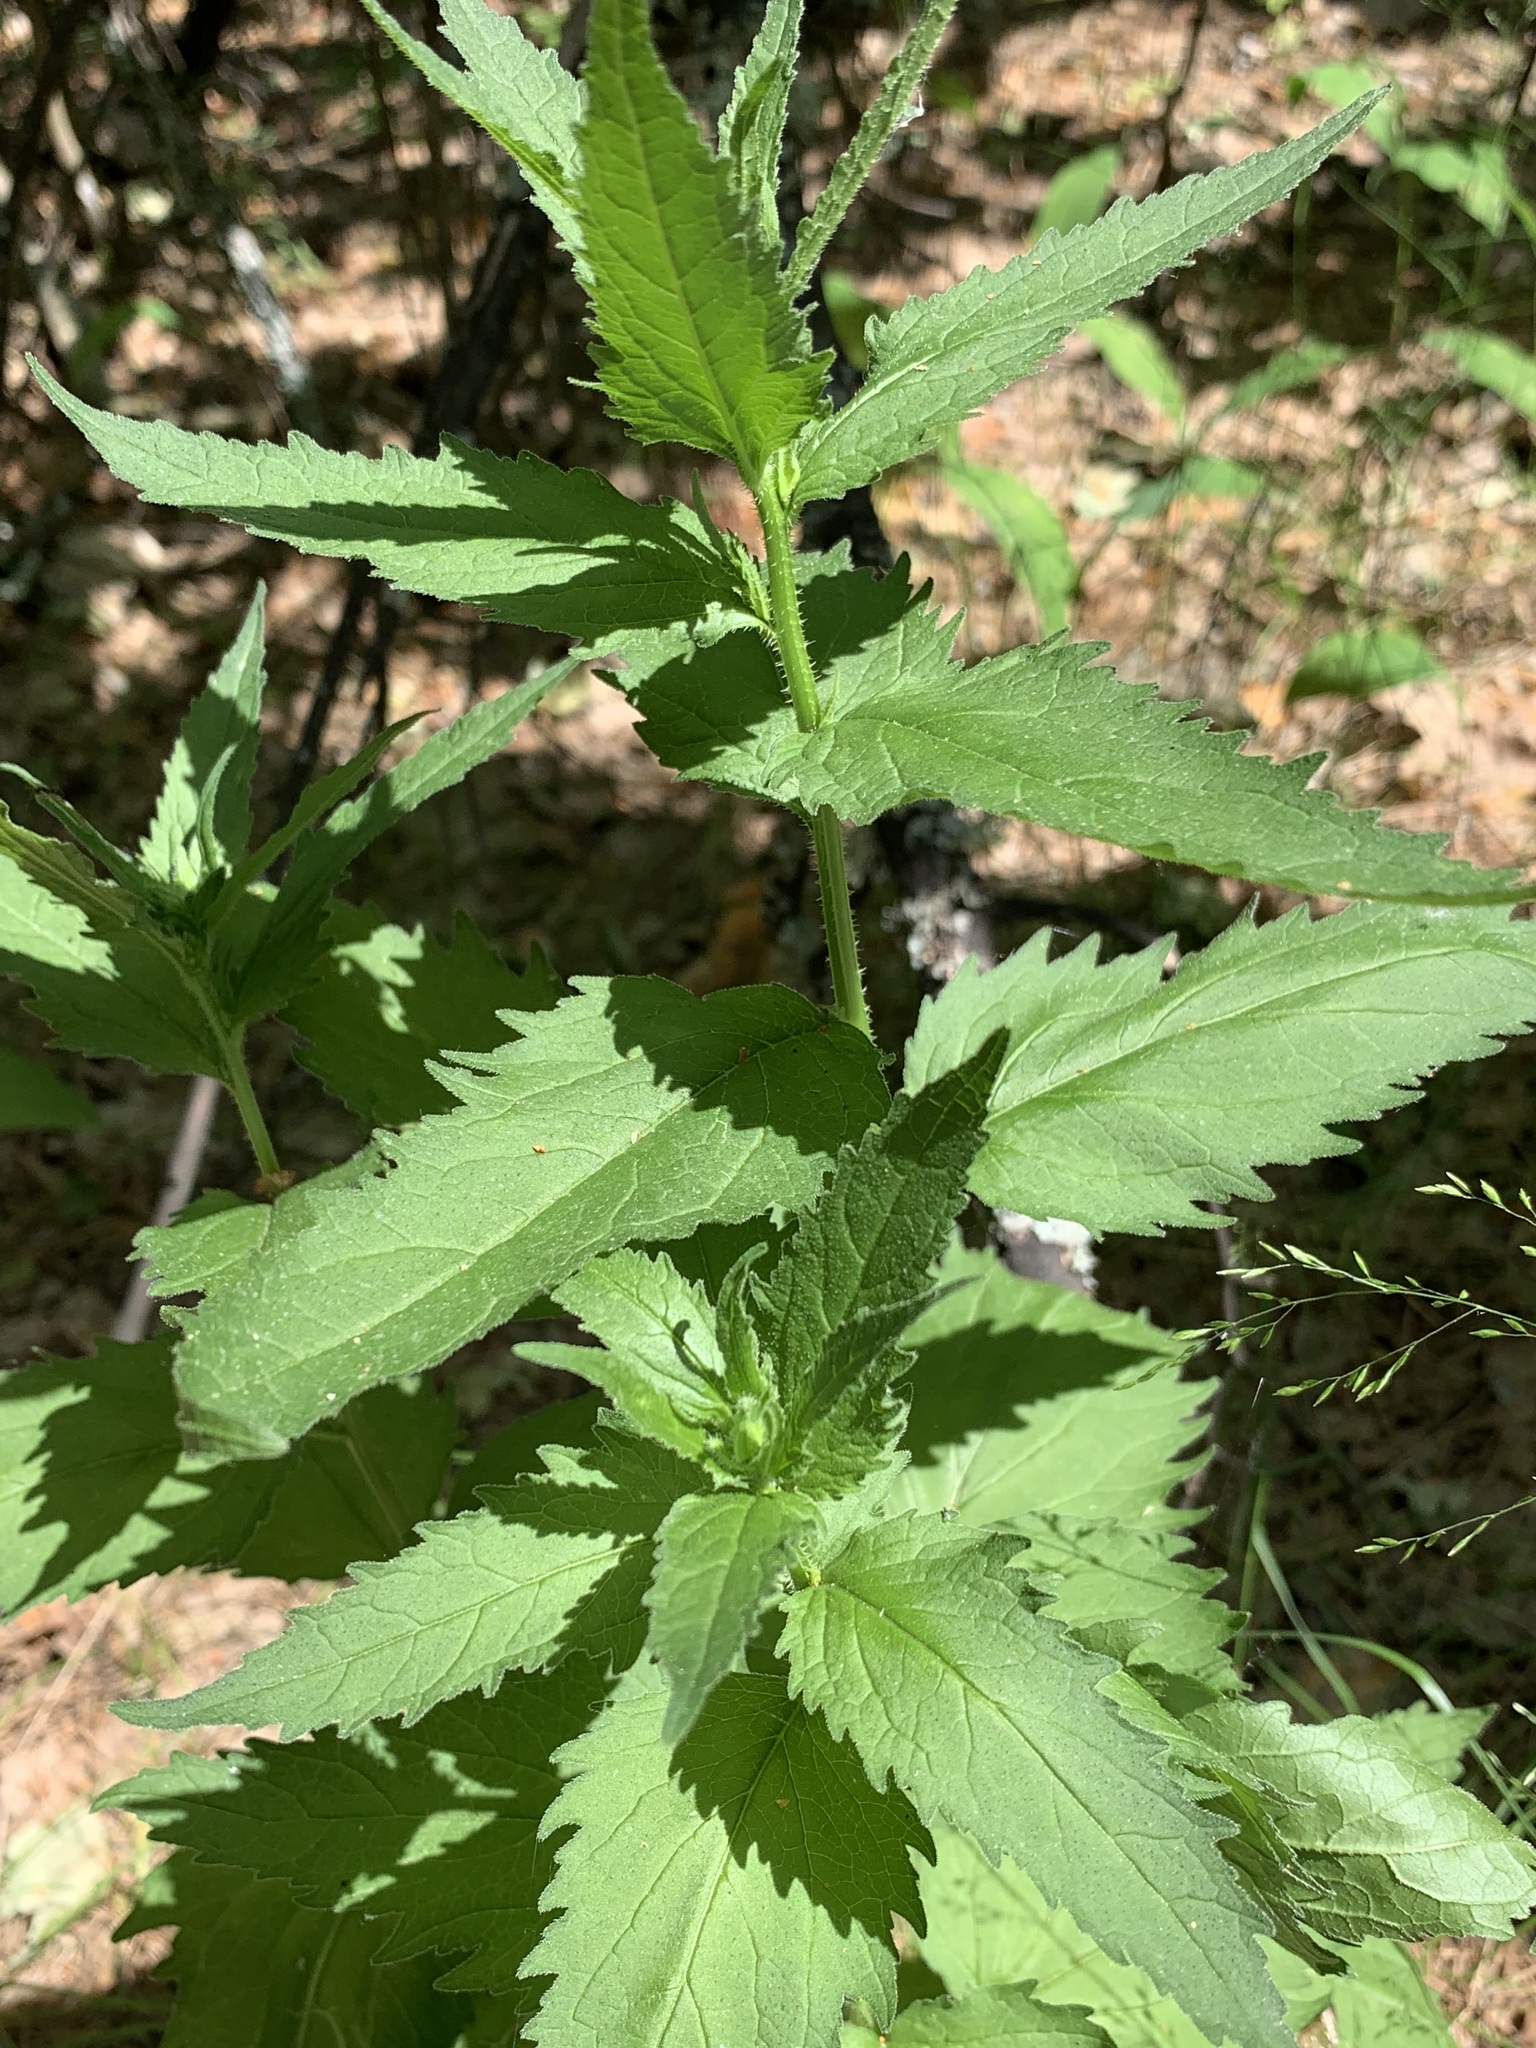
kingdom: Plantae
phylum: Tracheophyta
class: Magnoliopsida
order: Asterales
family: Campanulaceae
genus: Campanula
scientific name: Campanula trachelium
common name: Nettle-leaved bellflower
